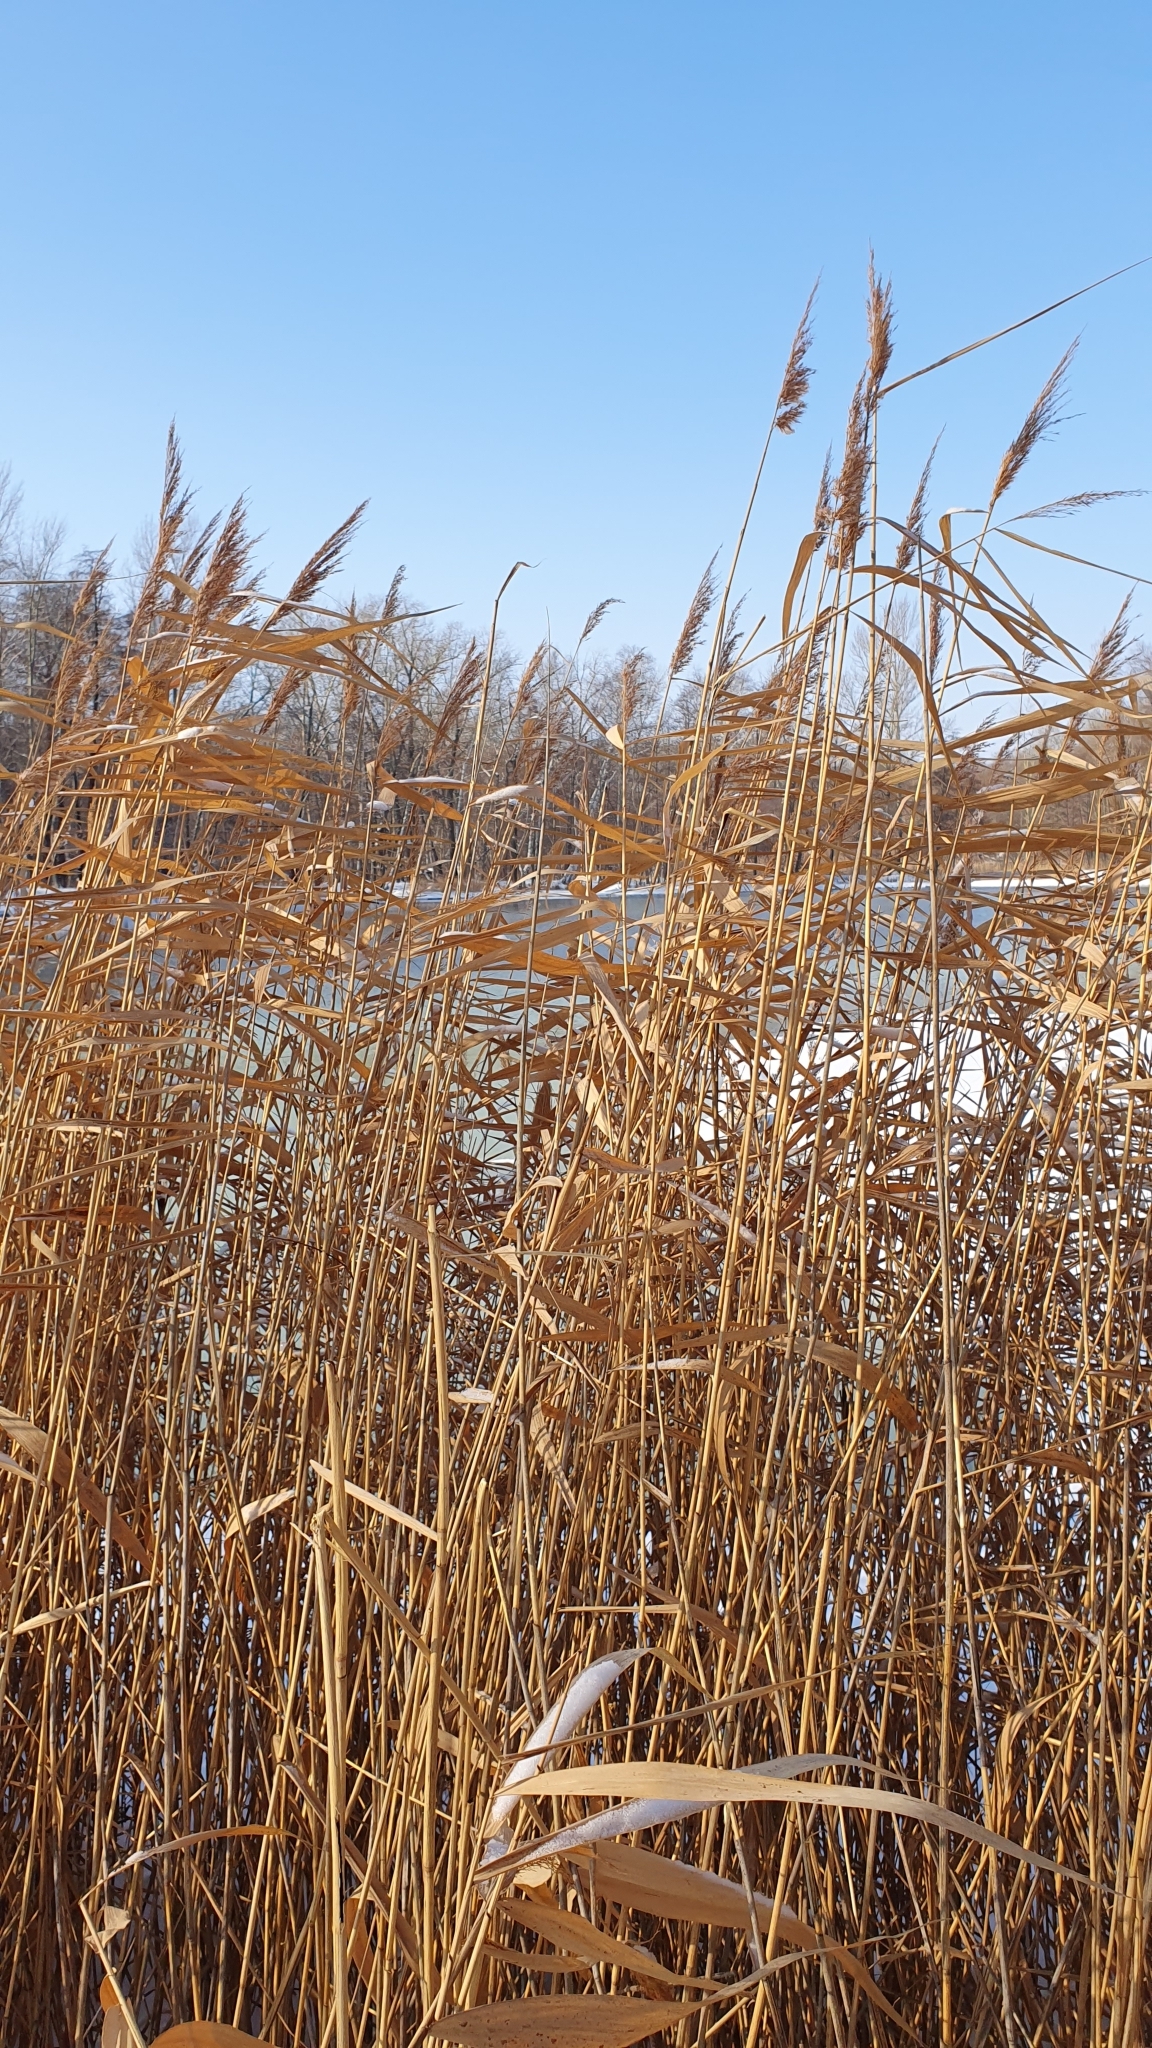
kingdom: Plantae
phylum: Tracheophyta
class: Liliopsida
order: Poales
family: Poaceae
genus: Phragmites
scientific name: Phragmites australis
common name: Common reed
